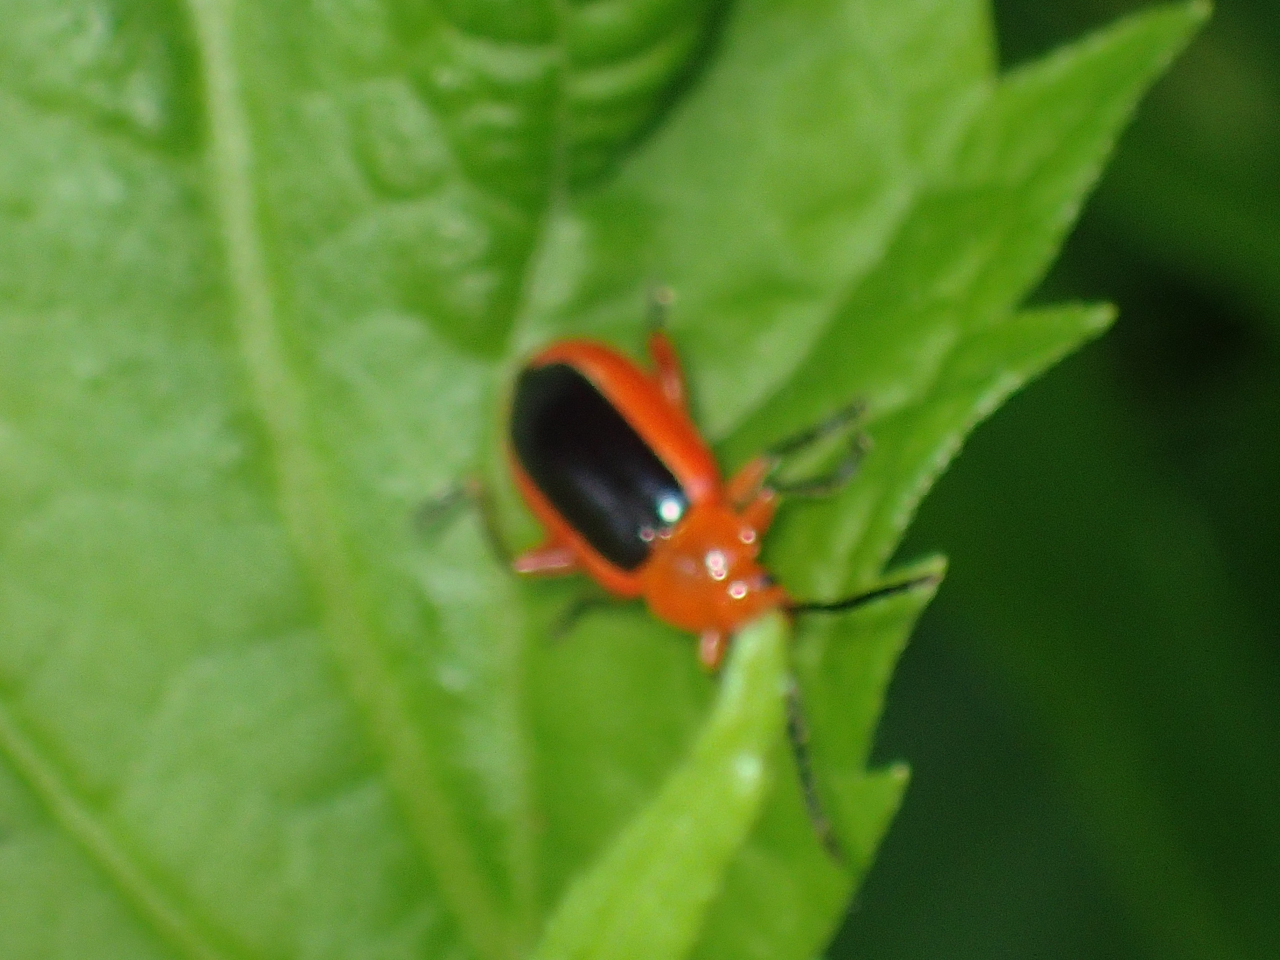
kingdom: Animalia
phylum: Arthropoda
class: Insecta
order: Coleoptera
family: Chrysomelidae
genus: Disonycha
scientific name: Disonycha discoidea
